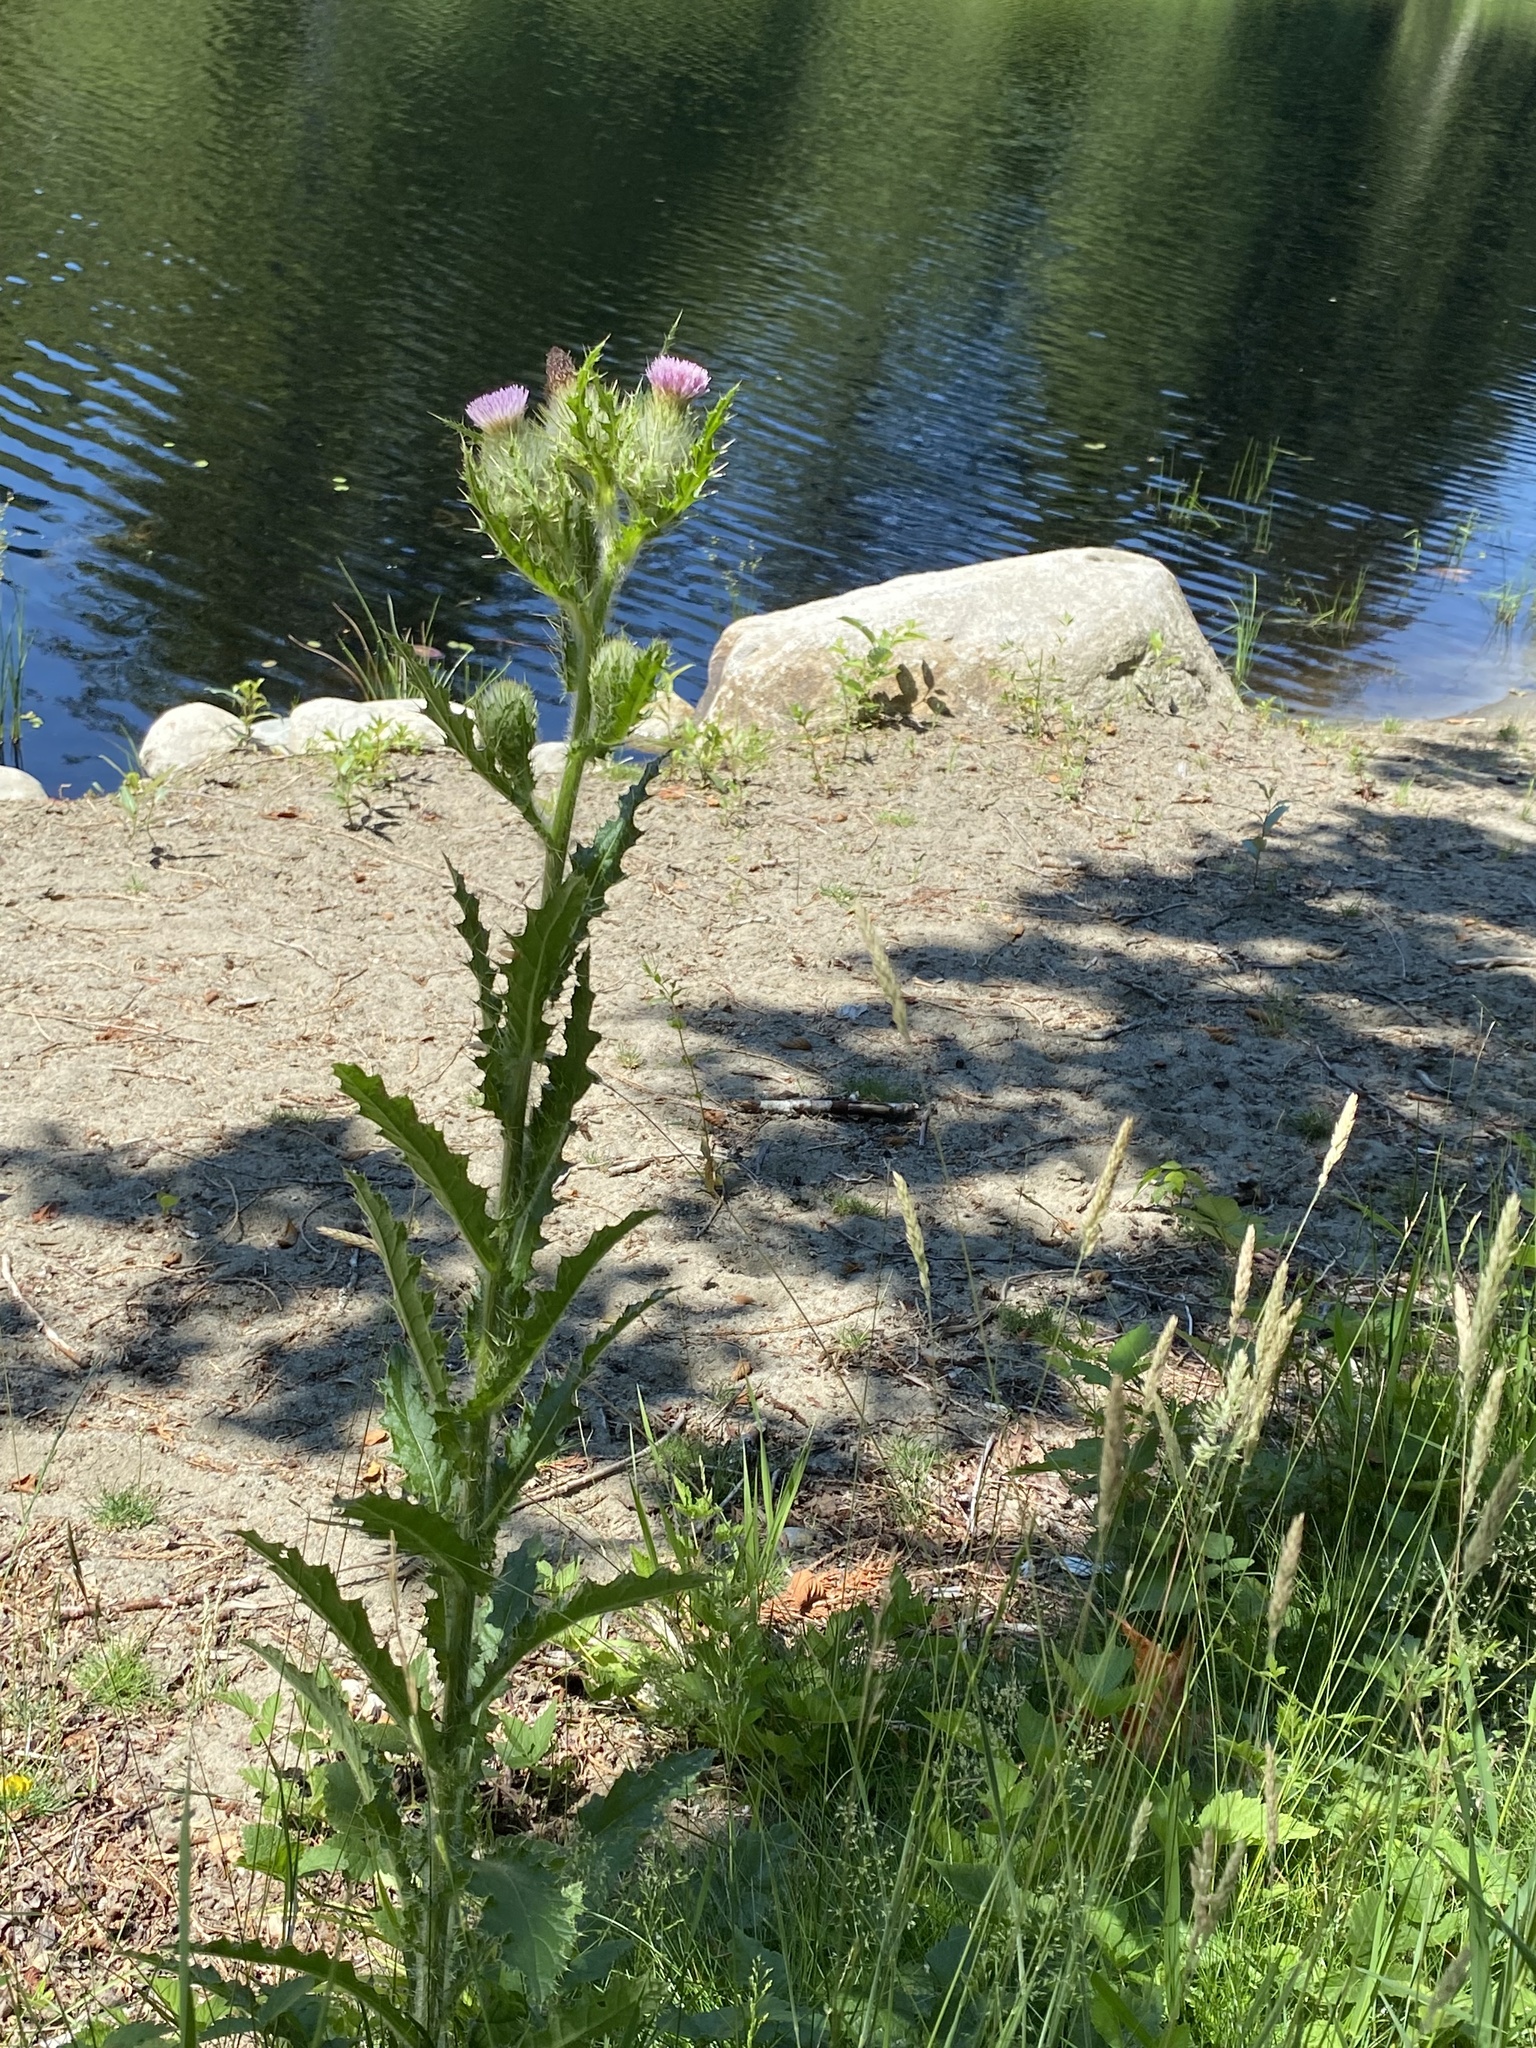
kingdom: Plantae
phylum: Tracheophyta
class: Magnoliopsida
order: Asterales
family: Asteraceae
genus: Cirsium
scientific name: Cirsium brevistylum
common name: Indian thistle
